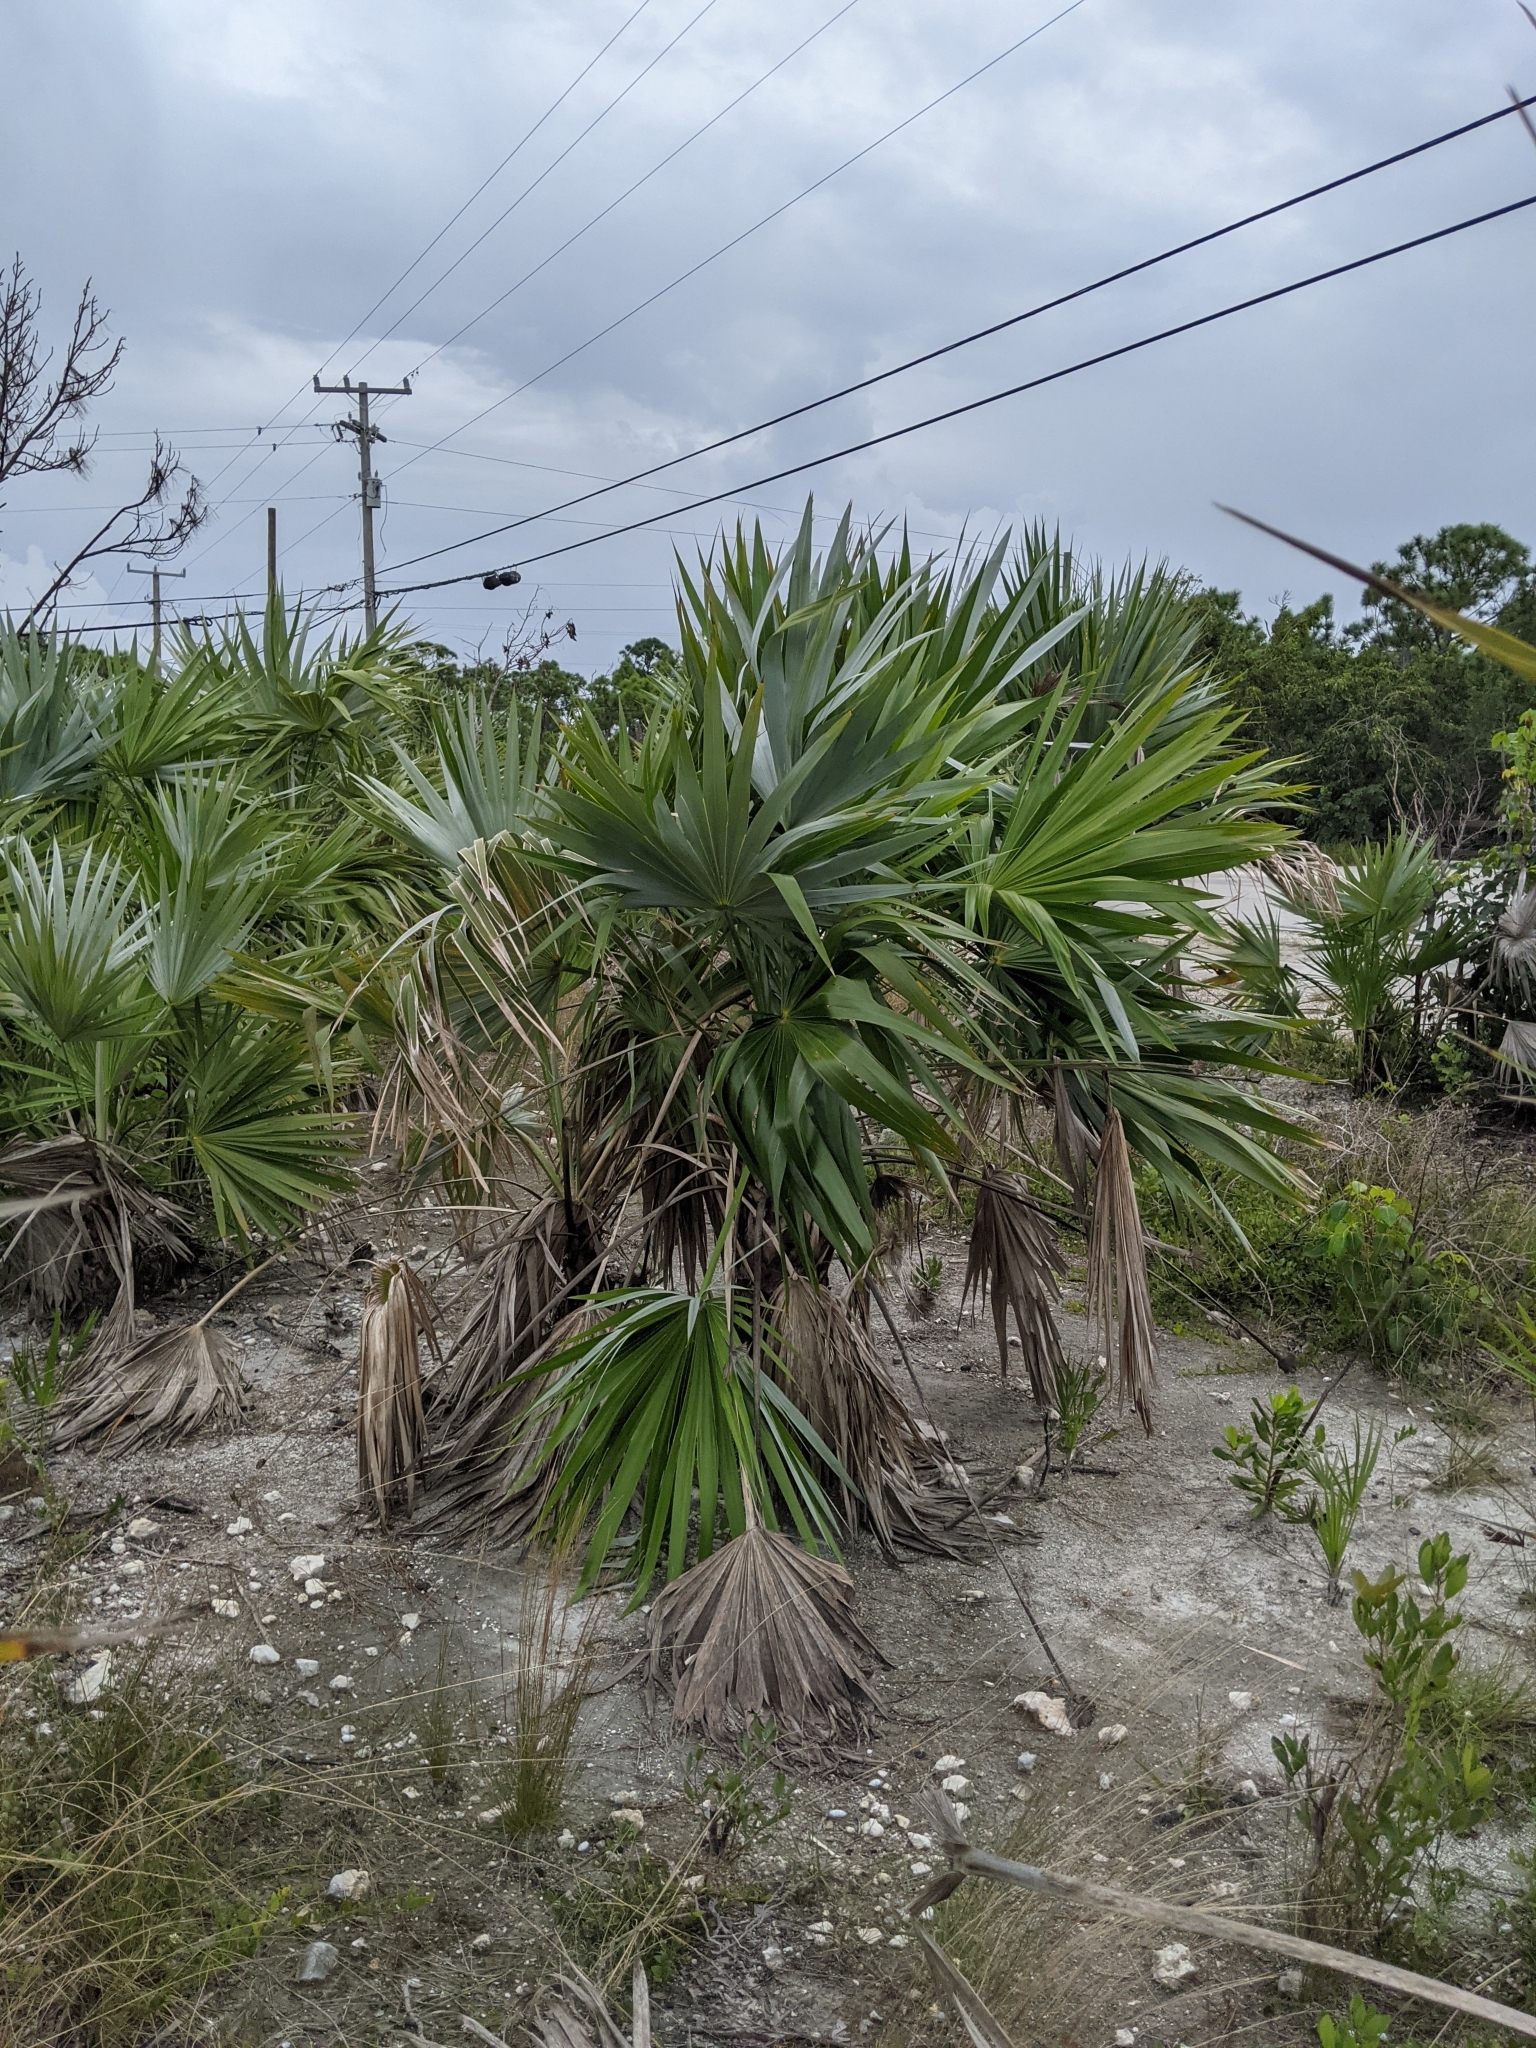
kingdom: Plantae
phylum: Tracheophyta
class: Liliopsida
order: Arecales
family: Arecaceae
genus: Leucothrinax
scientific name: Leucothrinax morrisii
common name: Key palm
